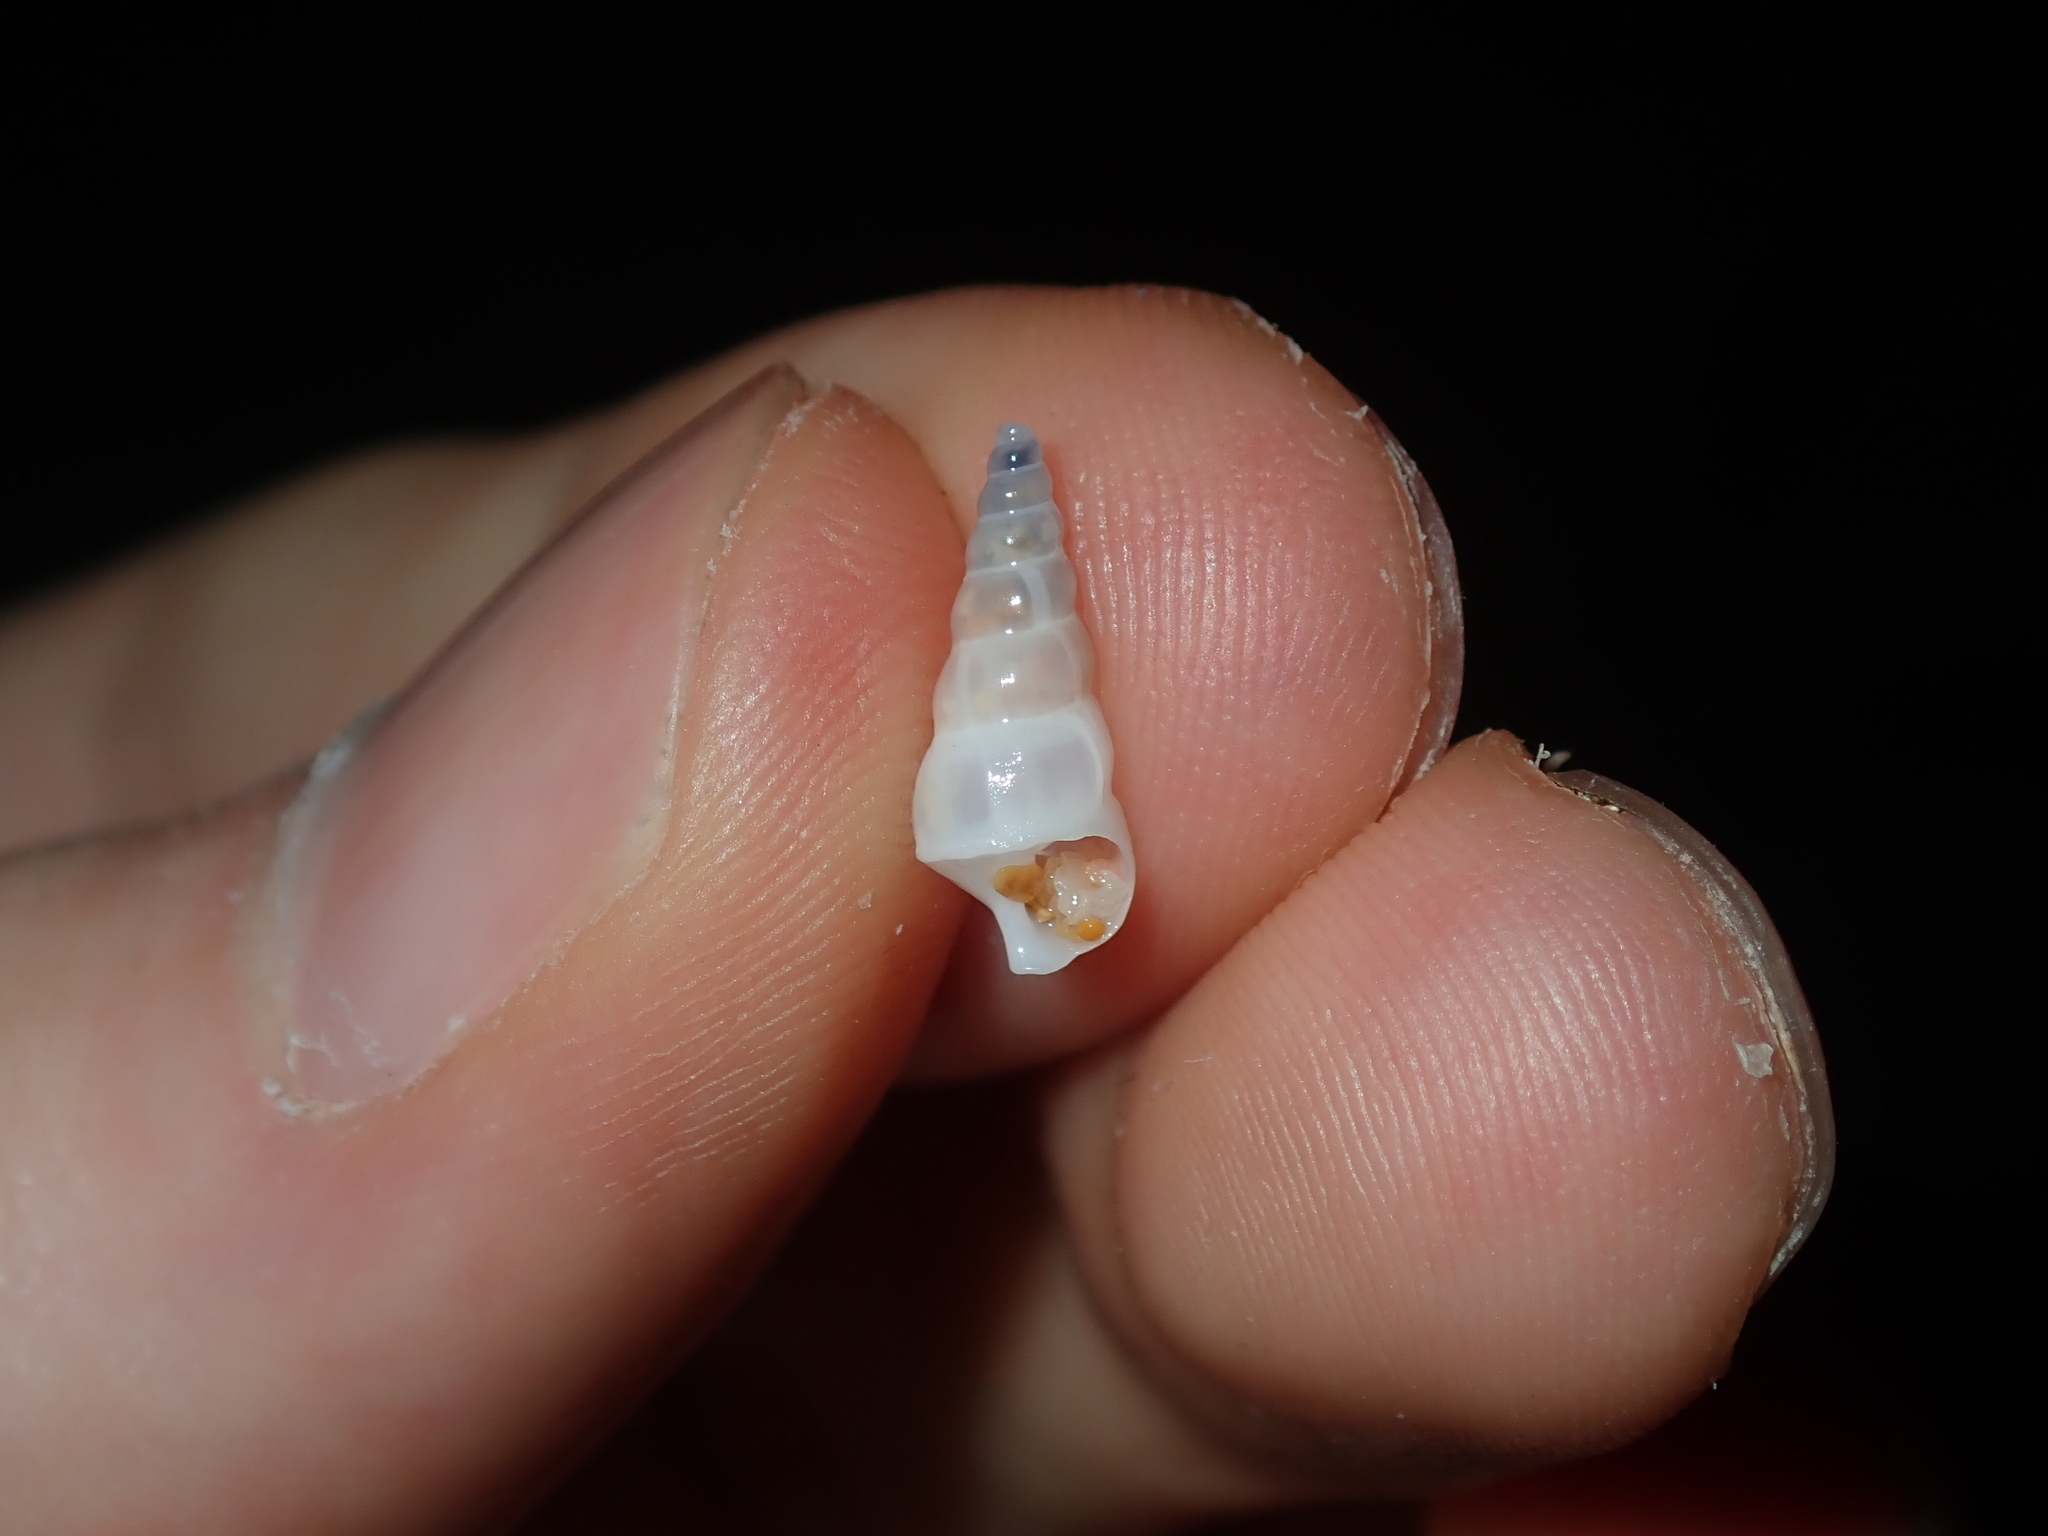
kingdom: Animalia
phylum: Mollusca
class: Gastropoda
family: Epitoniidae
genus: Opalia
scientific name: Opalia ballinensis
